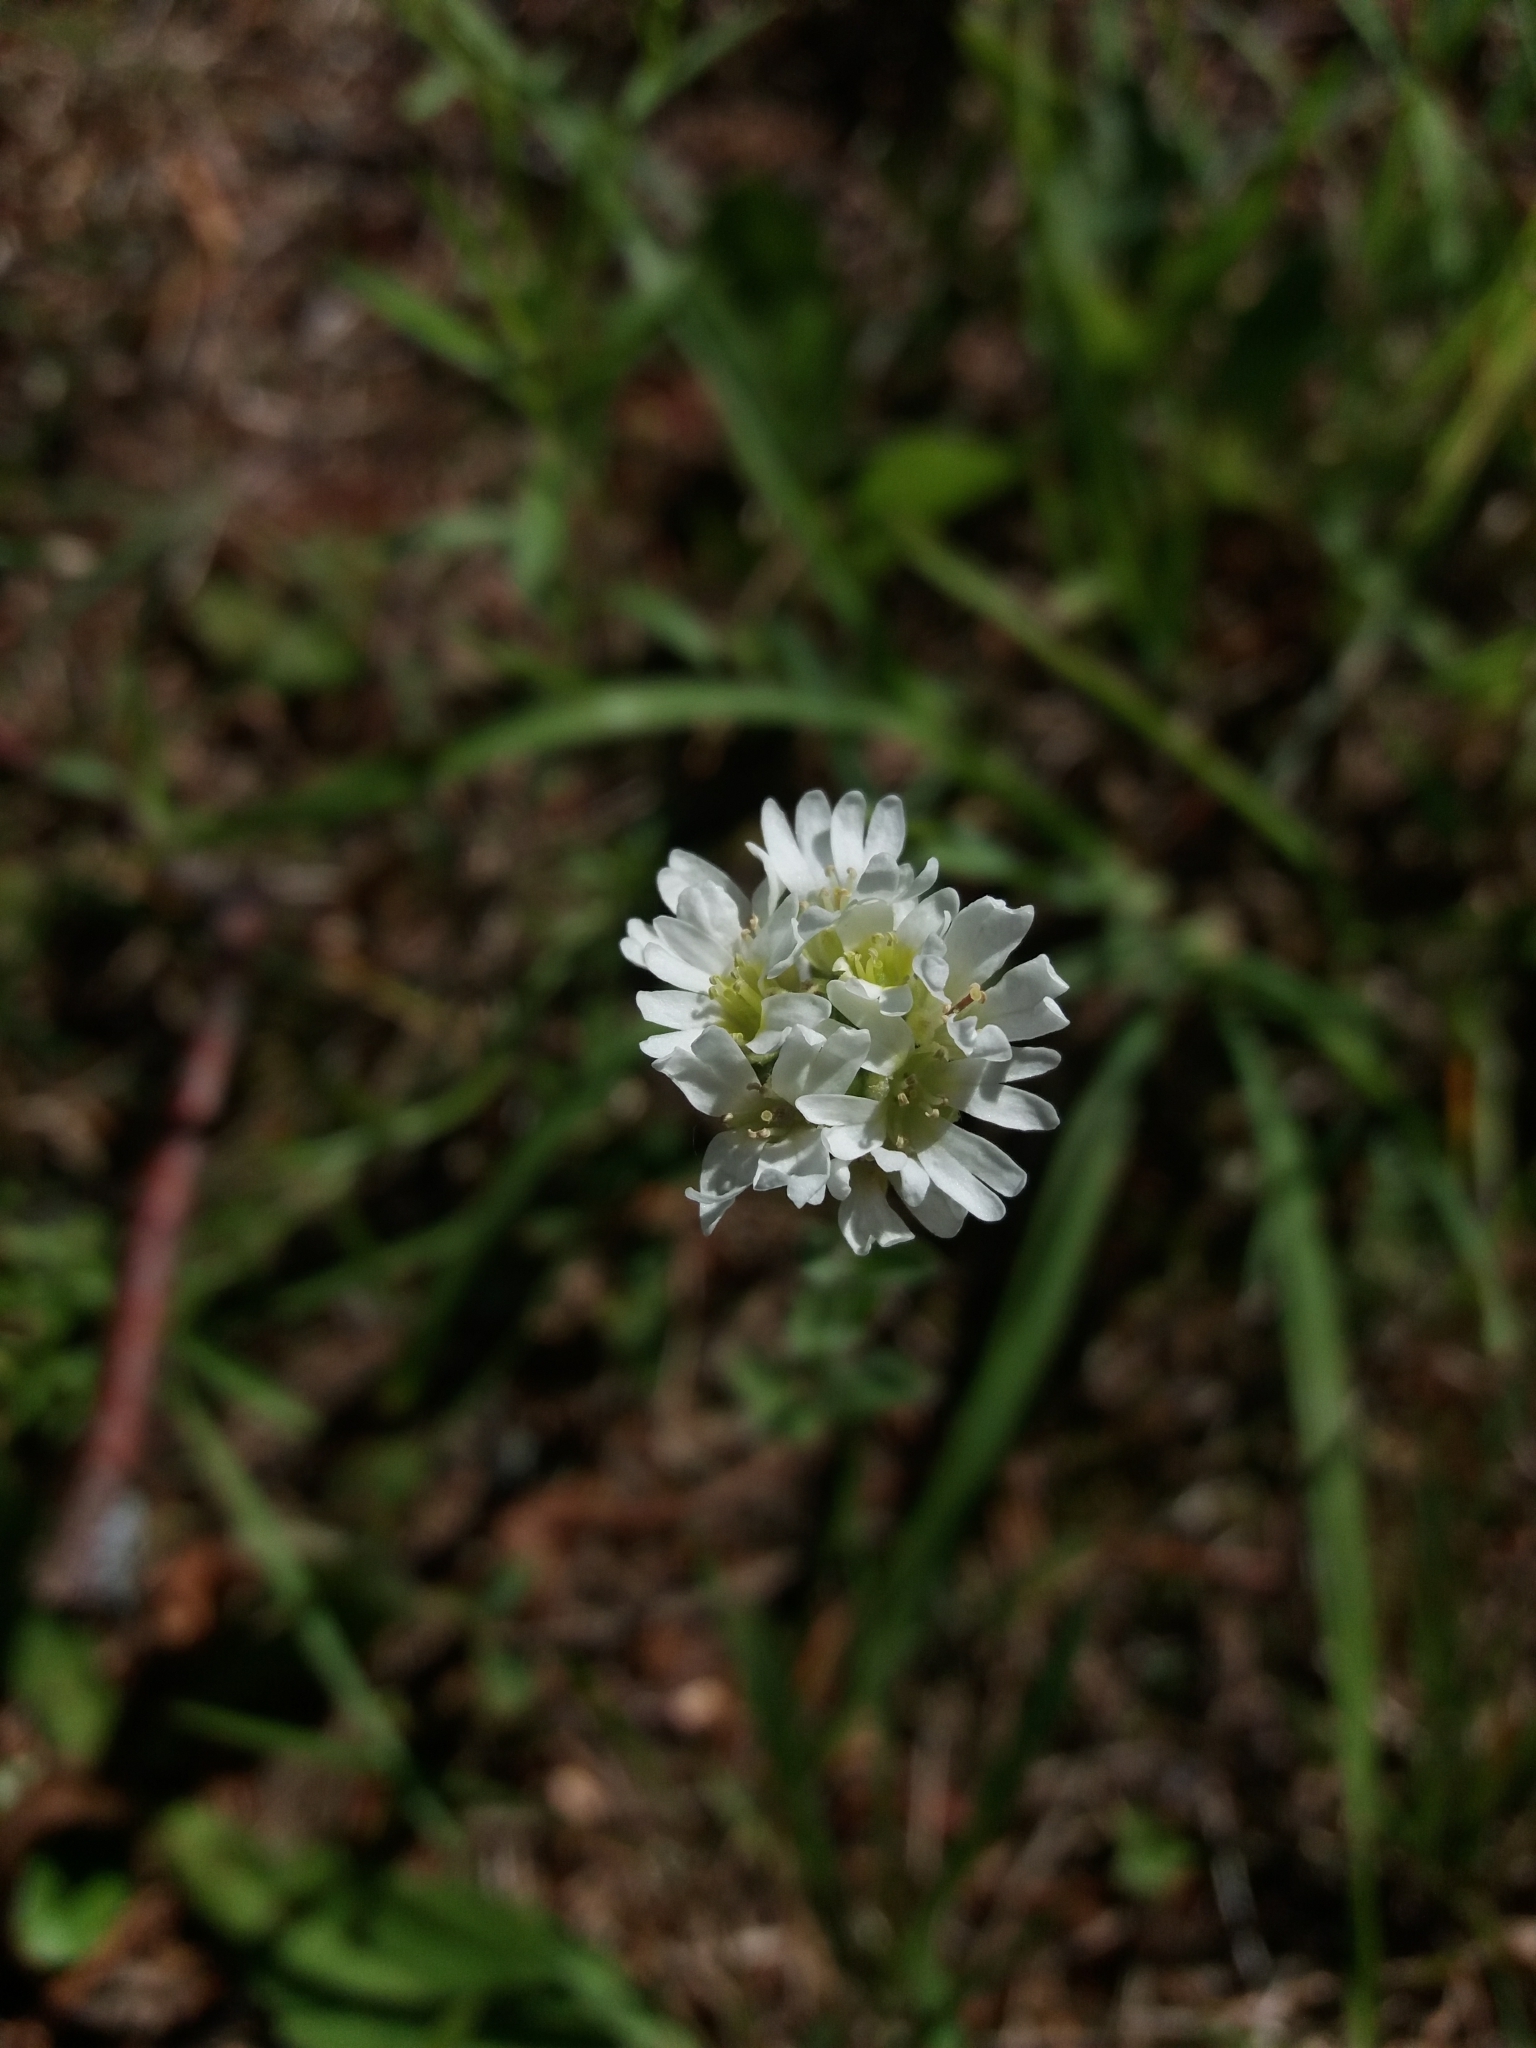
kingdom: Plantae
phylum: Tracheophyta
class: Magnoliopsida
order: Brassicales
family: Brassicaceae
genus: Berteroa
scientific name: Berteroa incana
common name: Hoary alison
